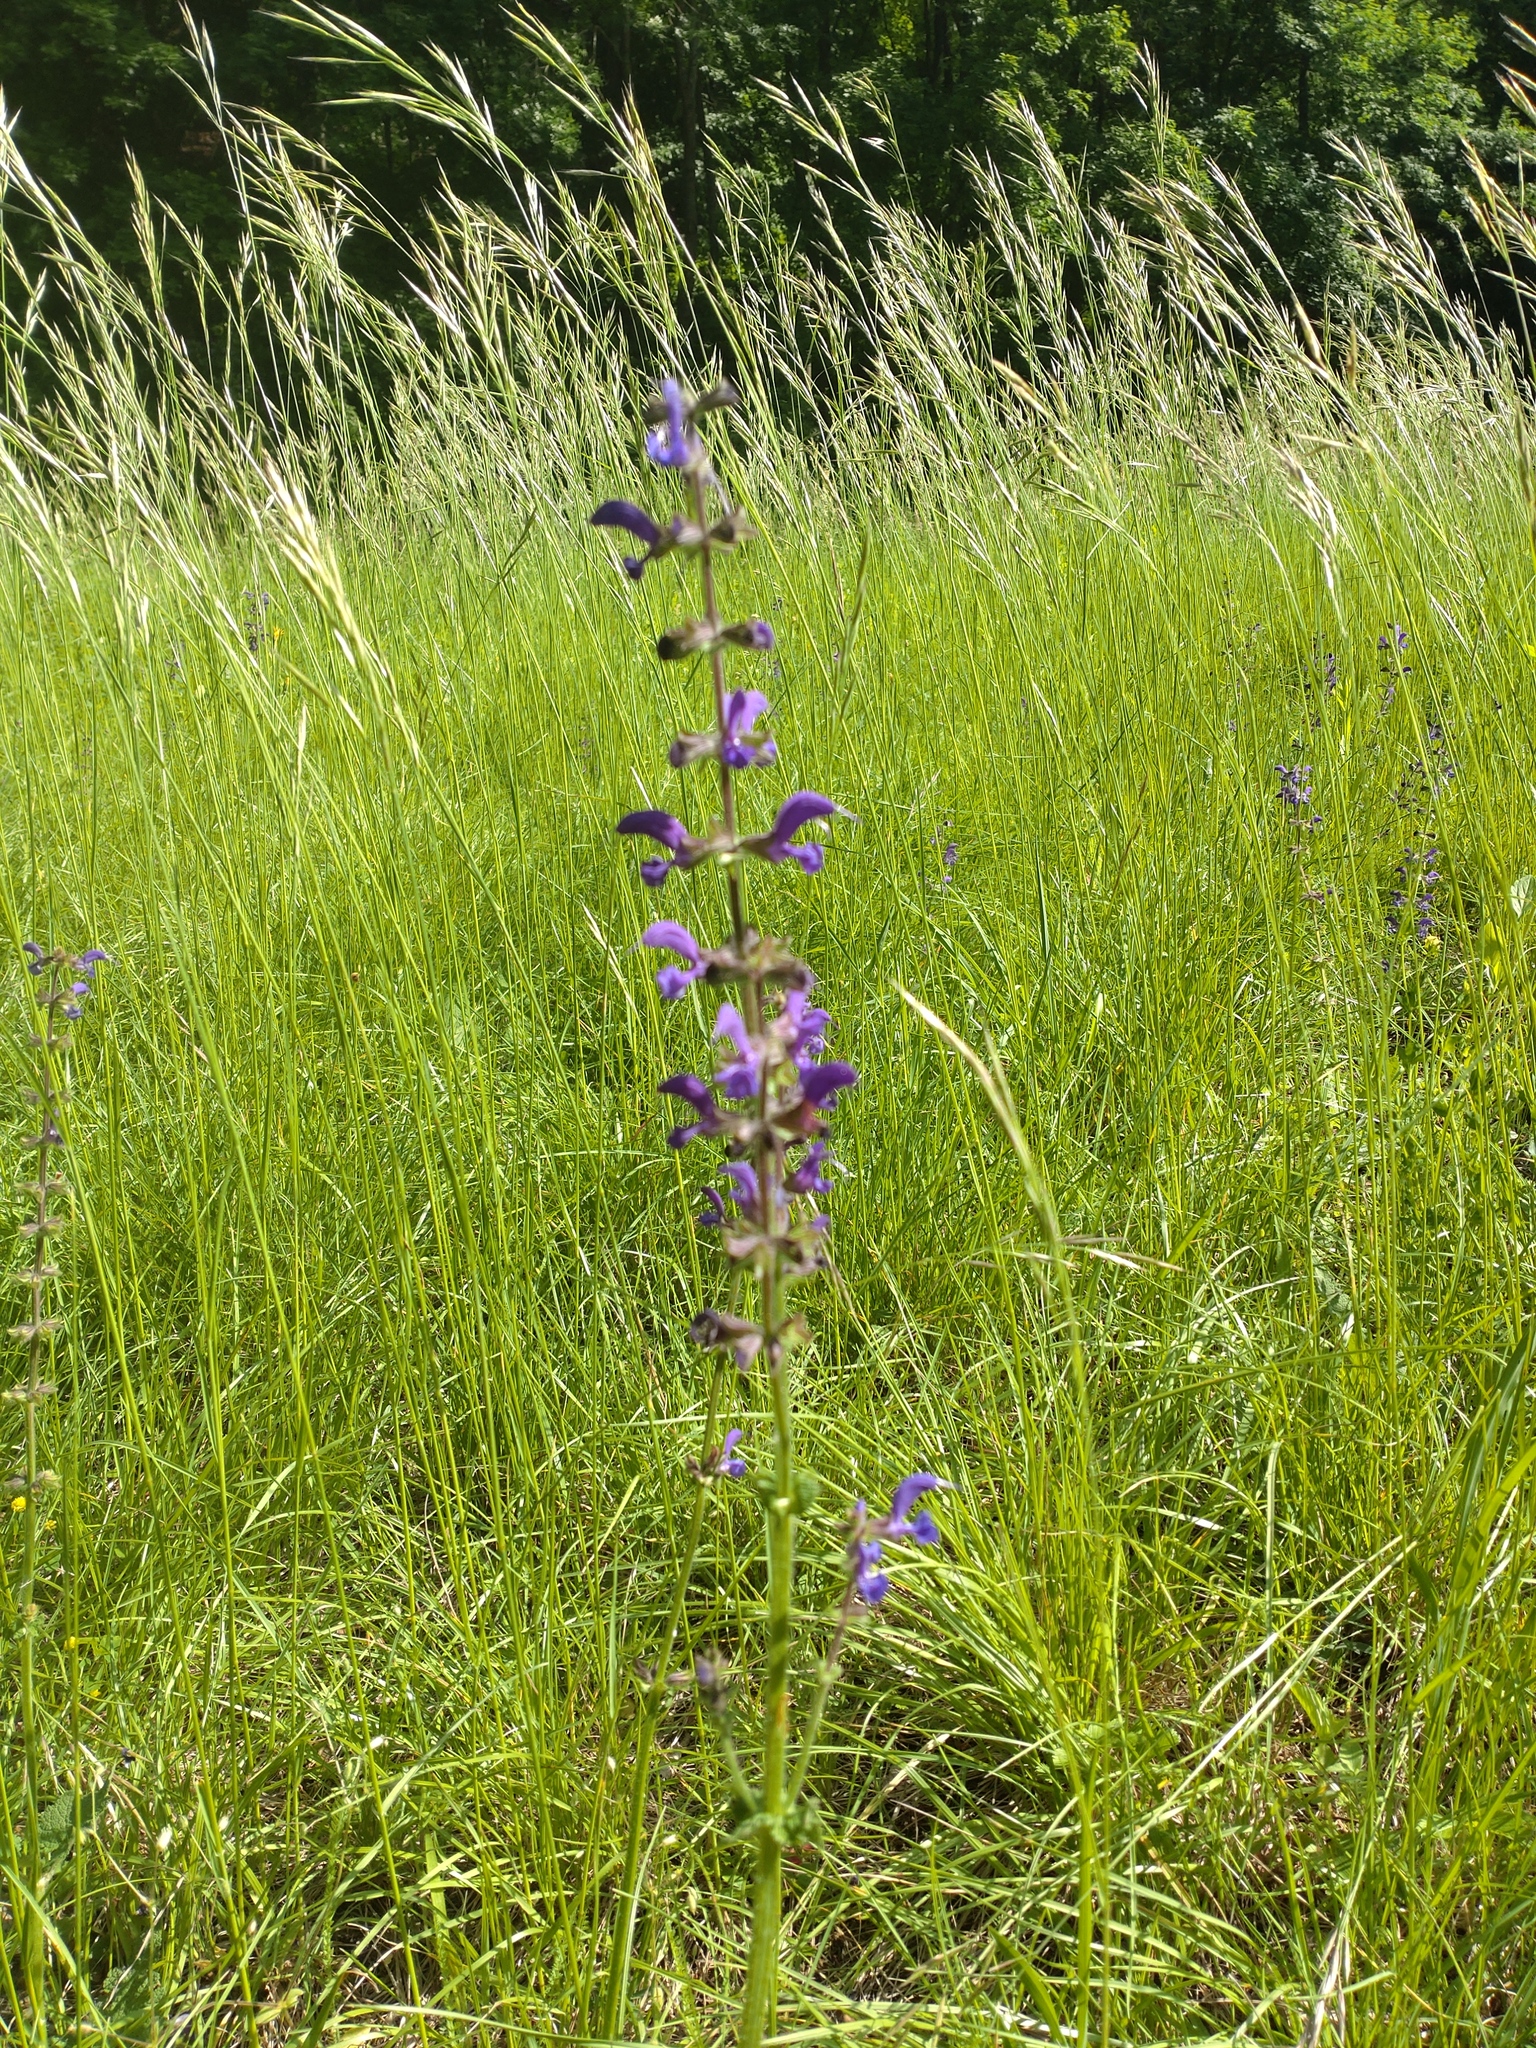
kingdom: Plantae
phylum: Tracheophyta
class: Magnoliopsida
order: Lamiales
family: Lamiaceae
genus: Salvia
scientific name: Salvia pratensis
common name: Meadow sage
